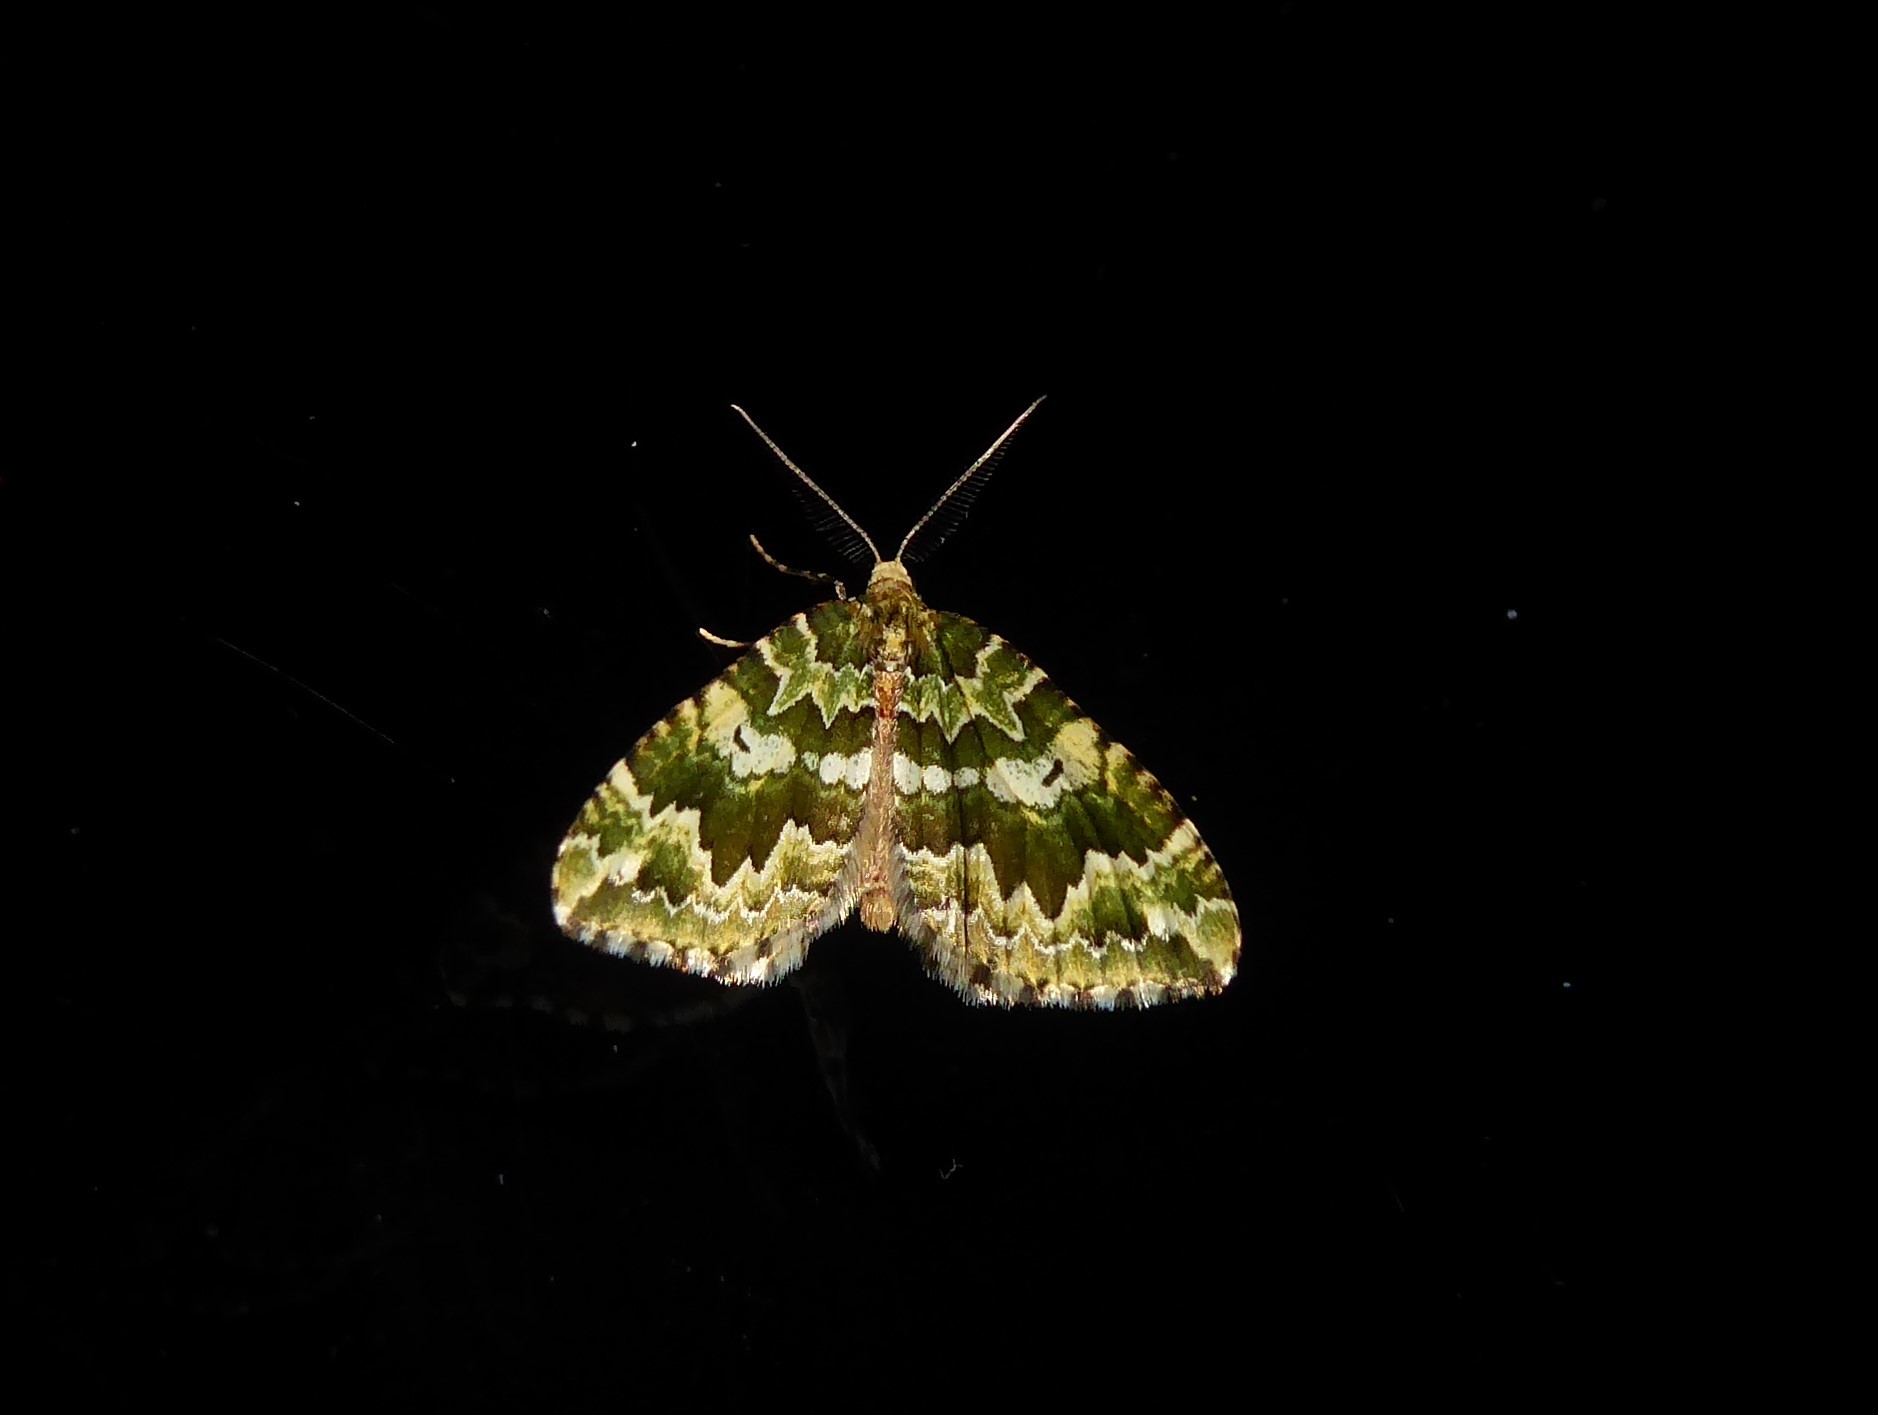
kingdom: Animalia
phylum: Arthropoda
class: Insecta
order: Lepidoptera
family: Geometridae
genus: Asaphodes
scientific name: Asaphodes beata
